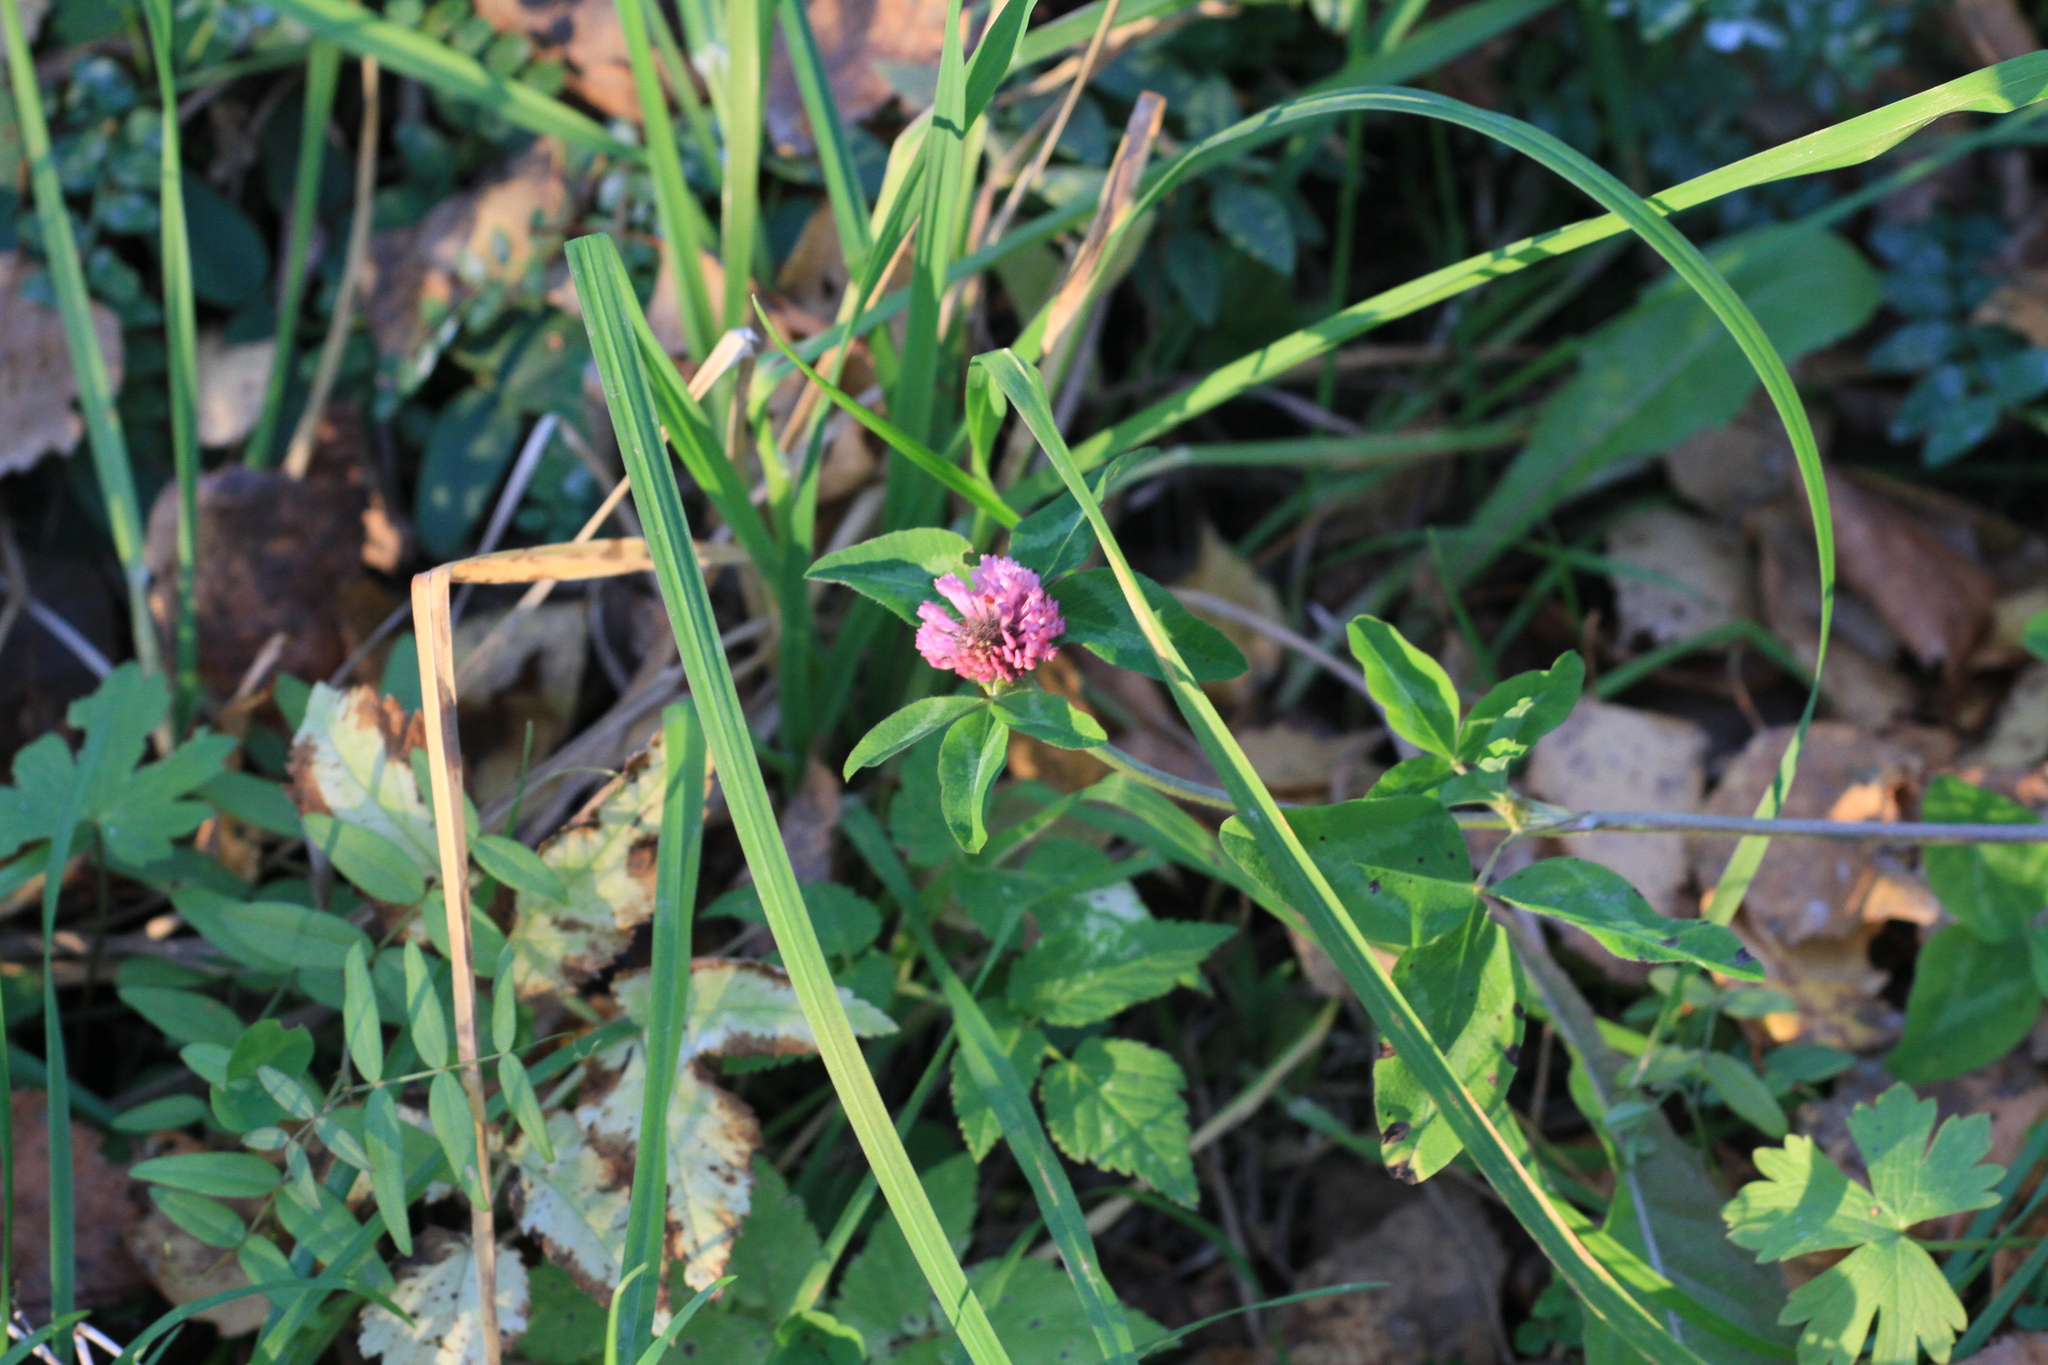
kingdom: Plantae
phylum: Tracheophyta
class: Magnoliopsida
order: Fabales
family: Fabaceae
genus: Trifolium
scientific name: Trifolium pratense
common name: Red clover
